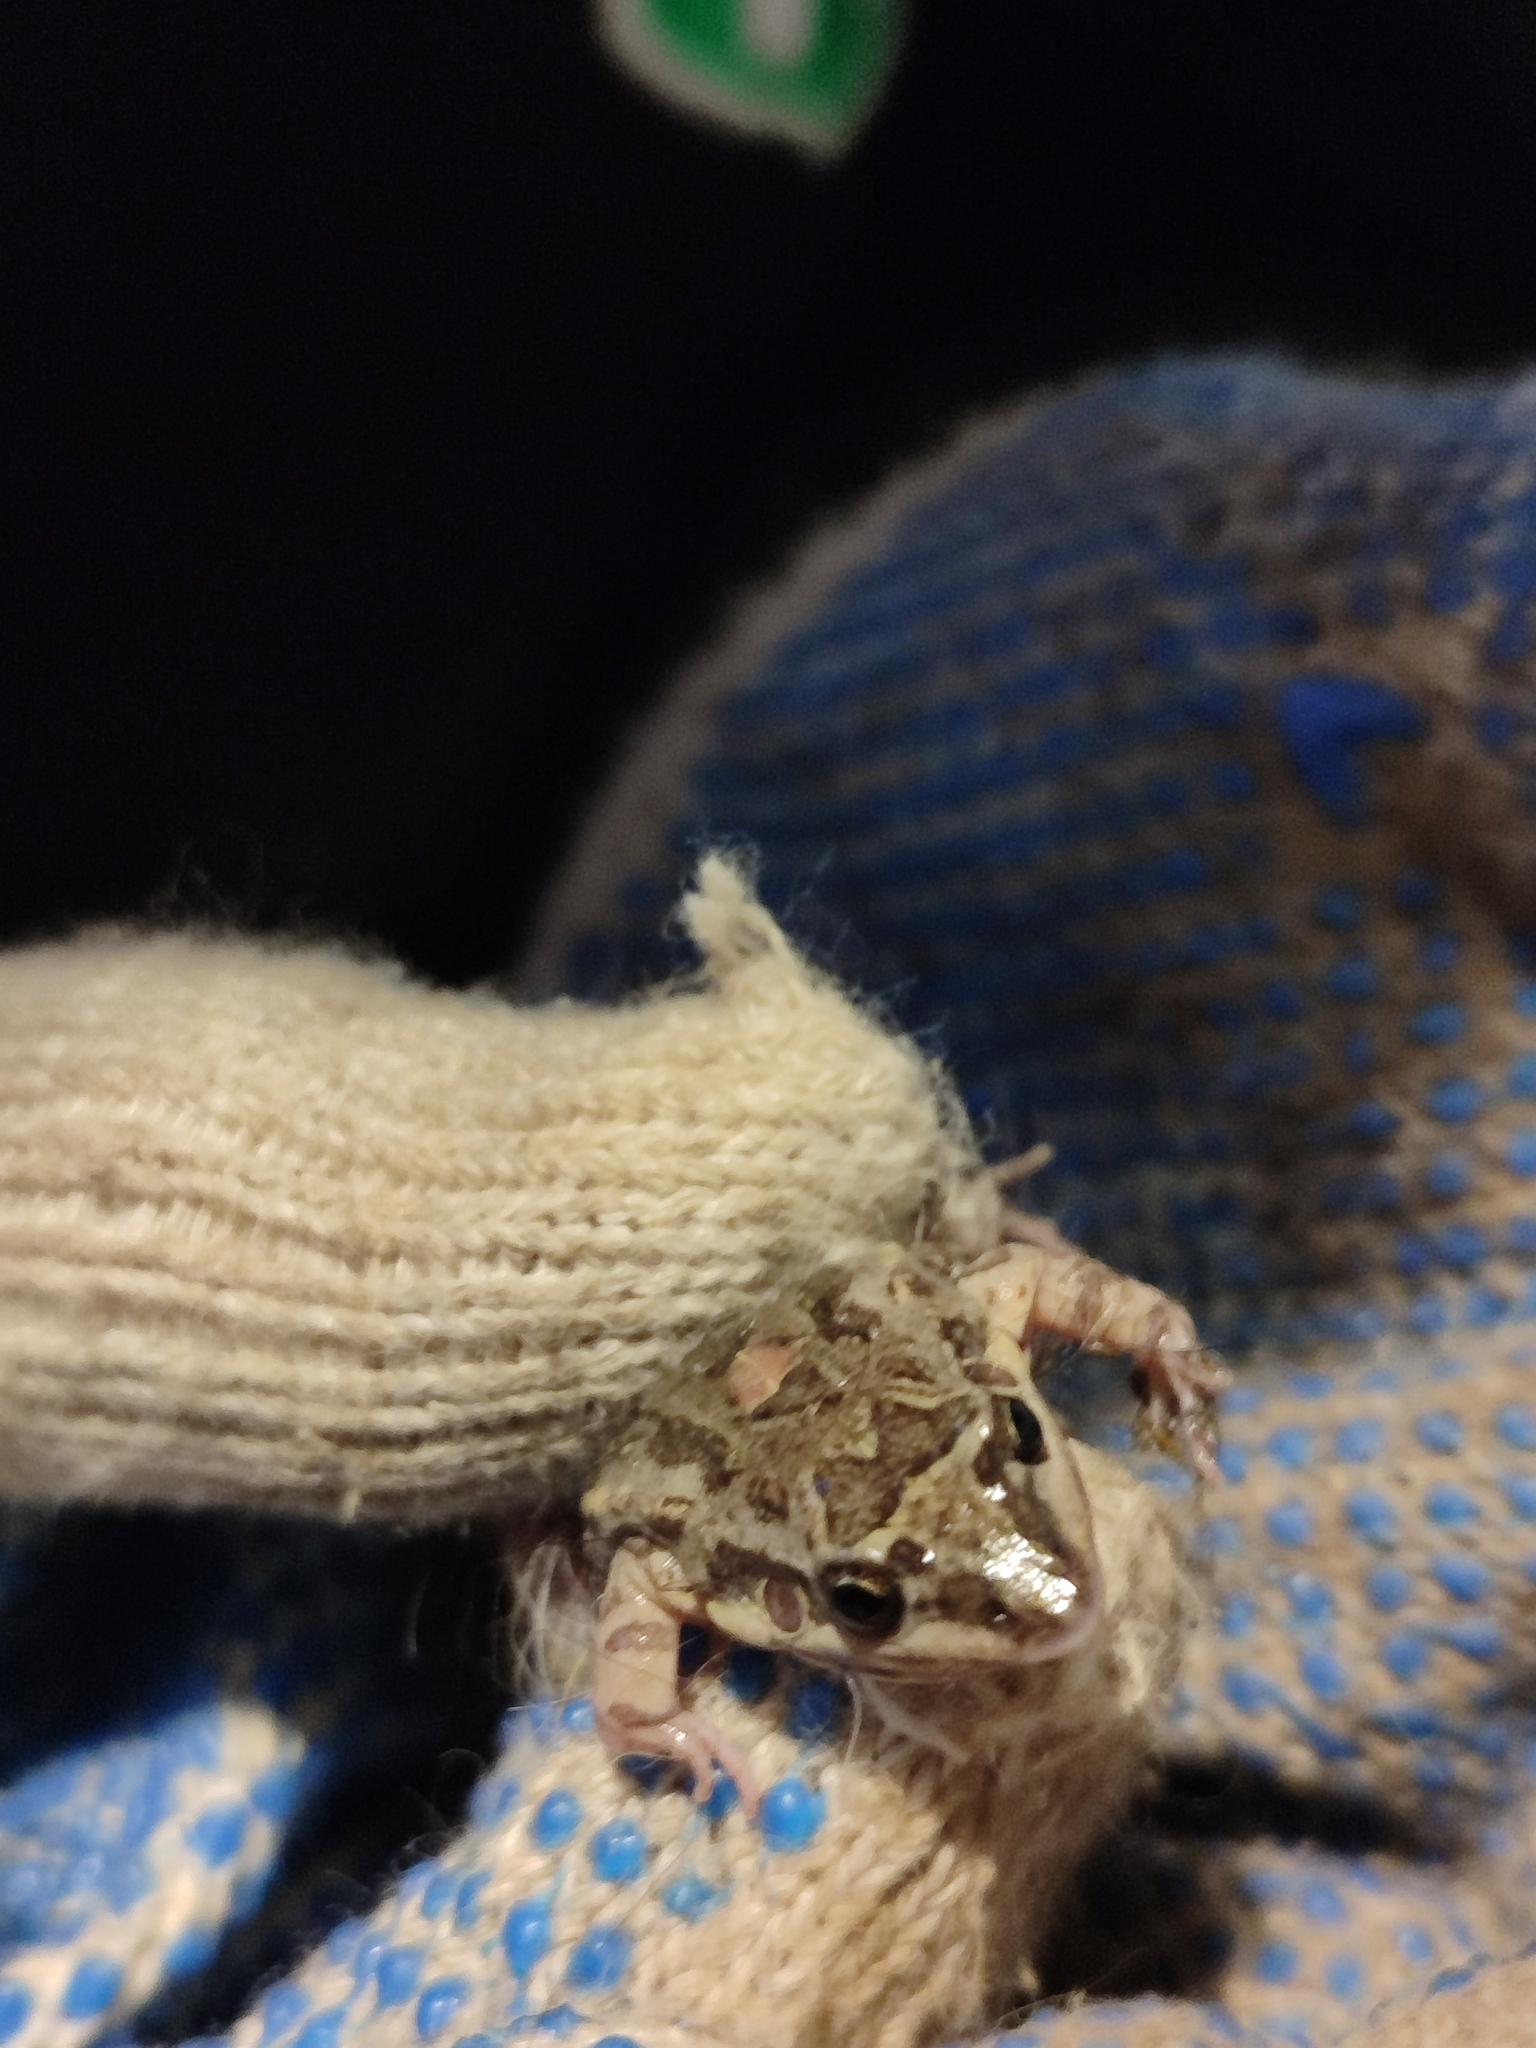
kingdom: Animalia
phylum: Chordata
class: Amphibia
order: Anura
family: Leptodactylidae
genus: Leptodactylus
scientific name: Leptodactylus latinasus
